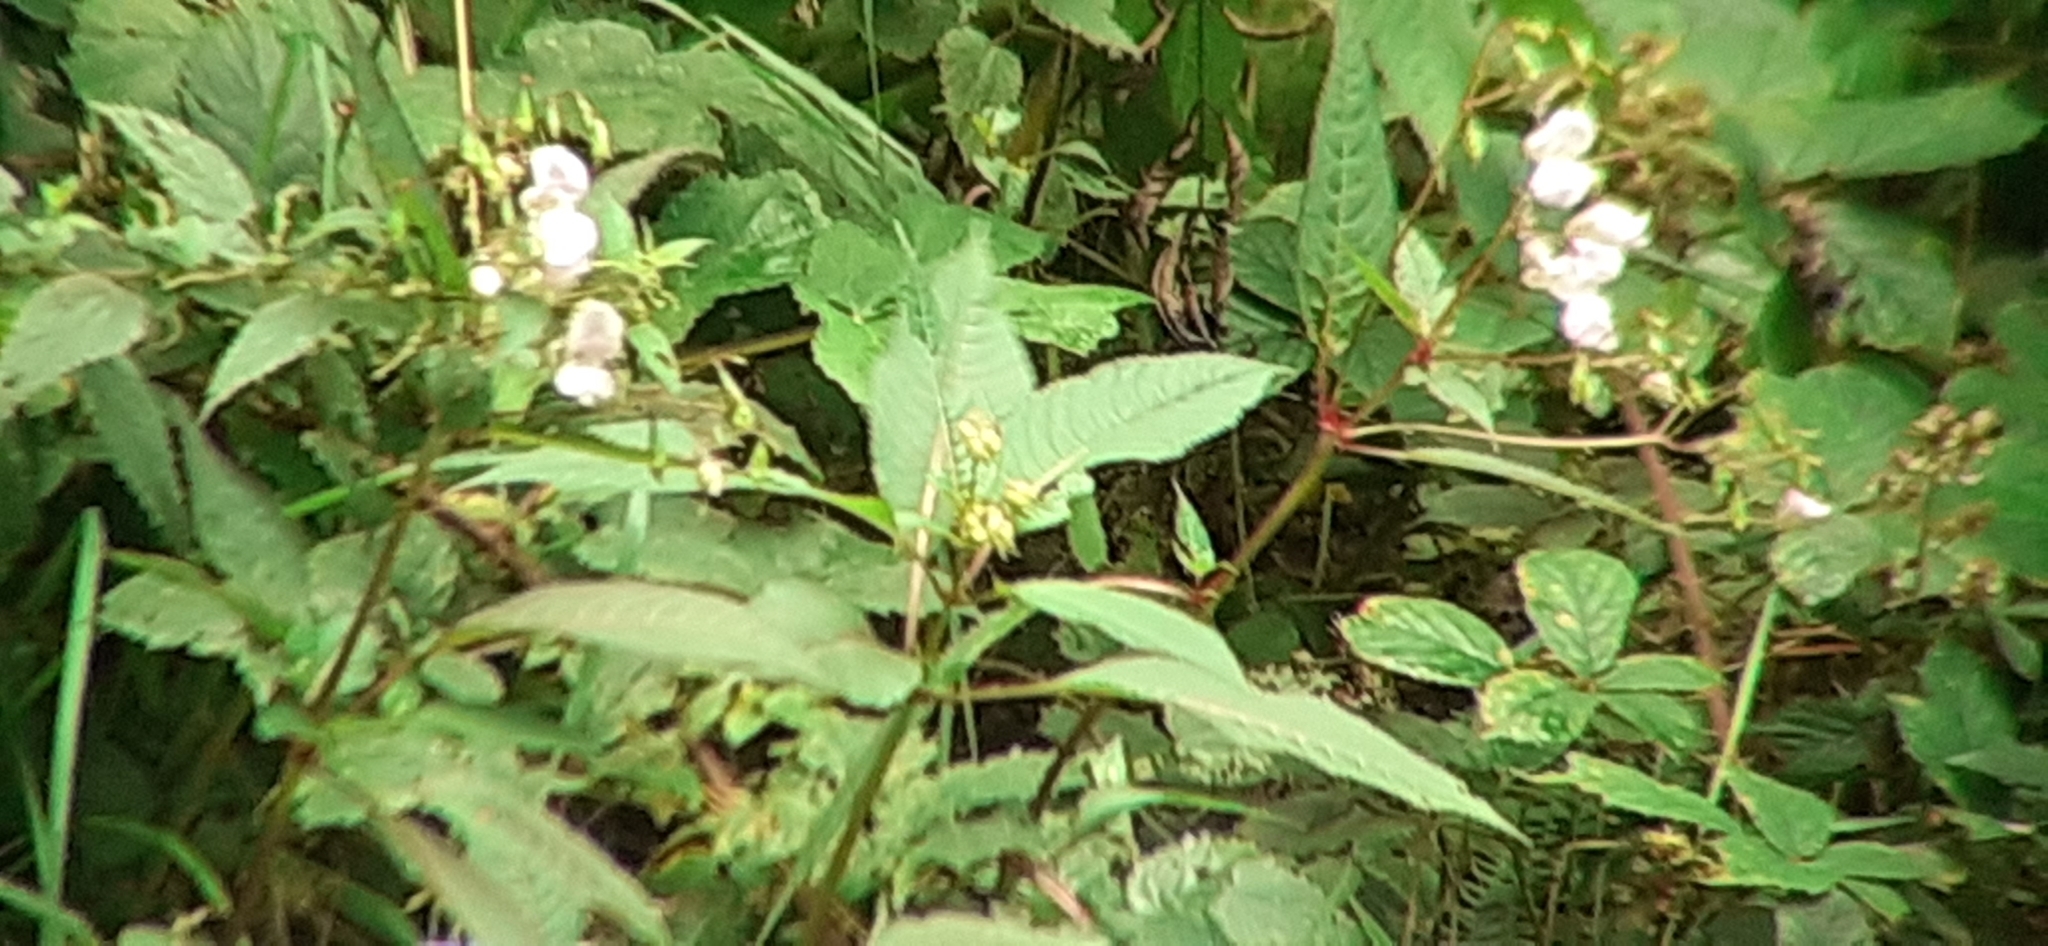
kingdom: Plantae
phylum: Tracheophyta
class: Magnoliopsida
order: Ericales
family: Balsaminaceae
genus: Impatiens
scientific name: Impatiens glandulifera
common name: Himalayan balsam
